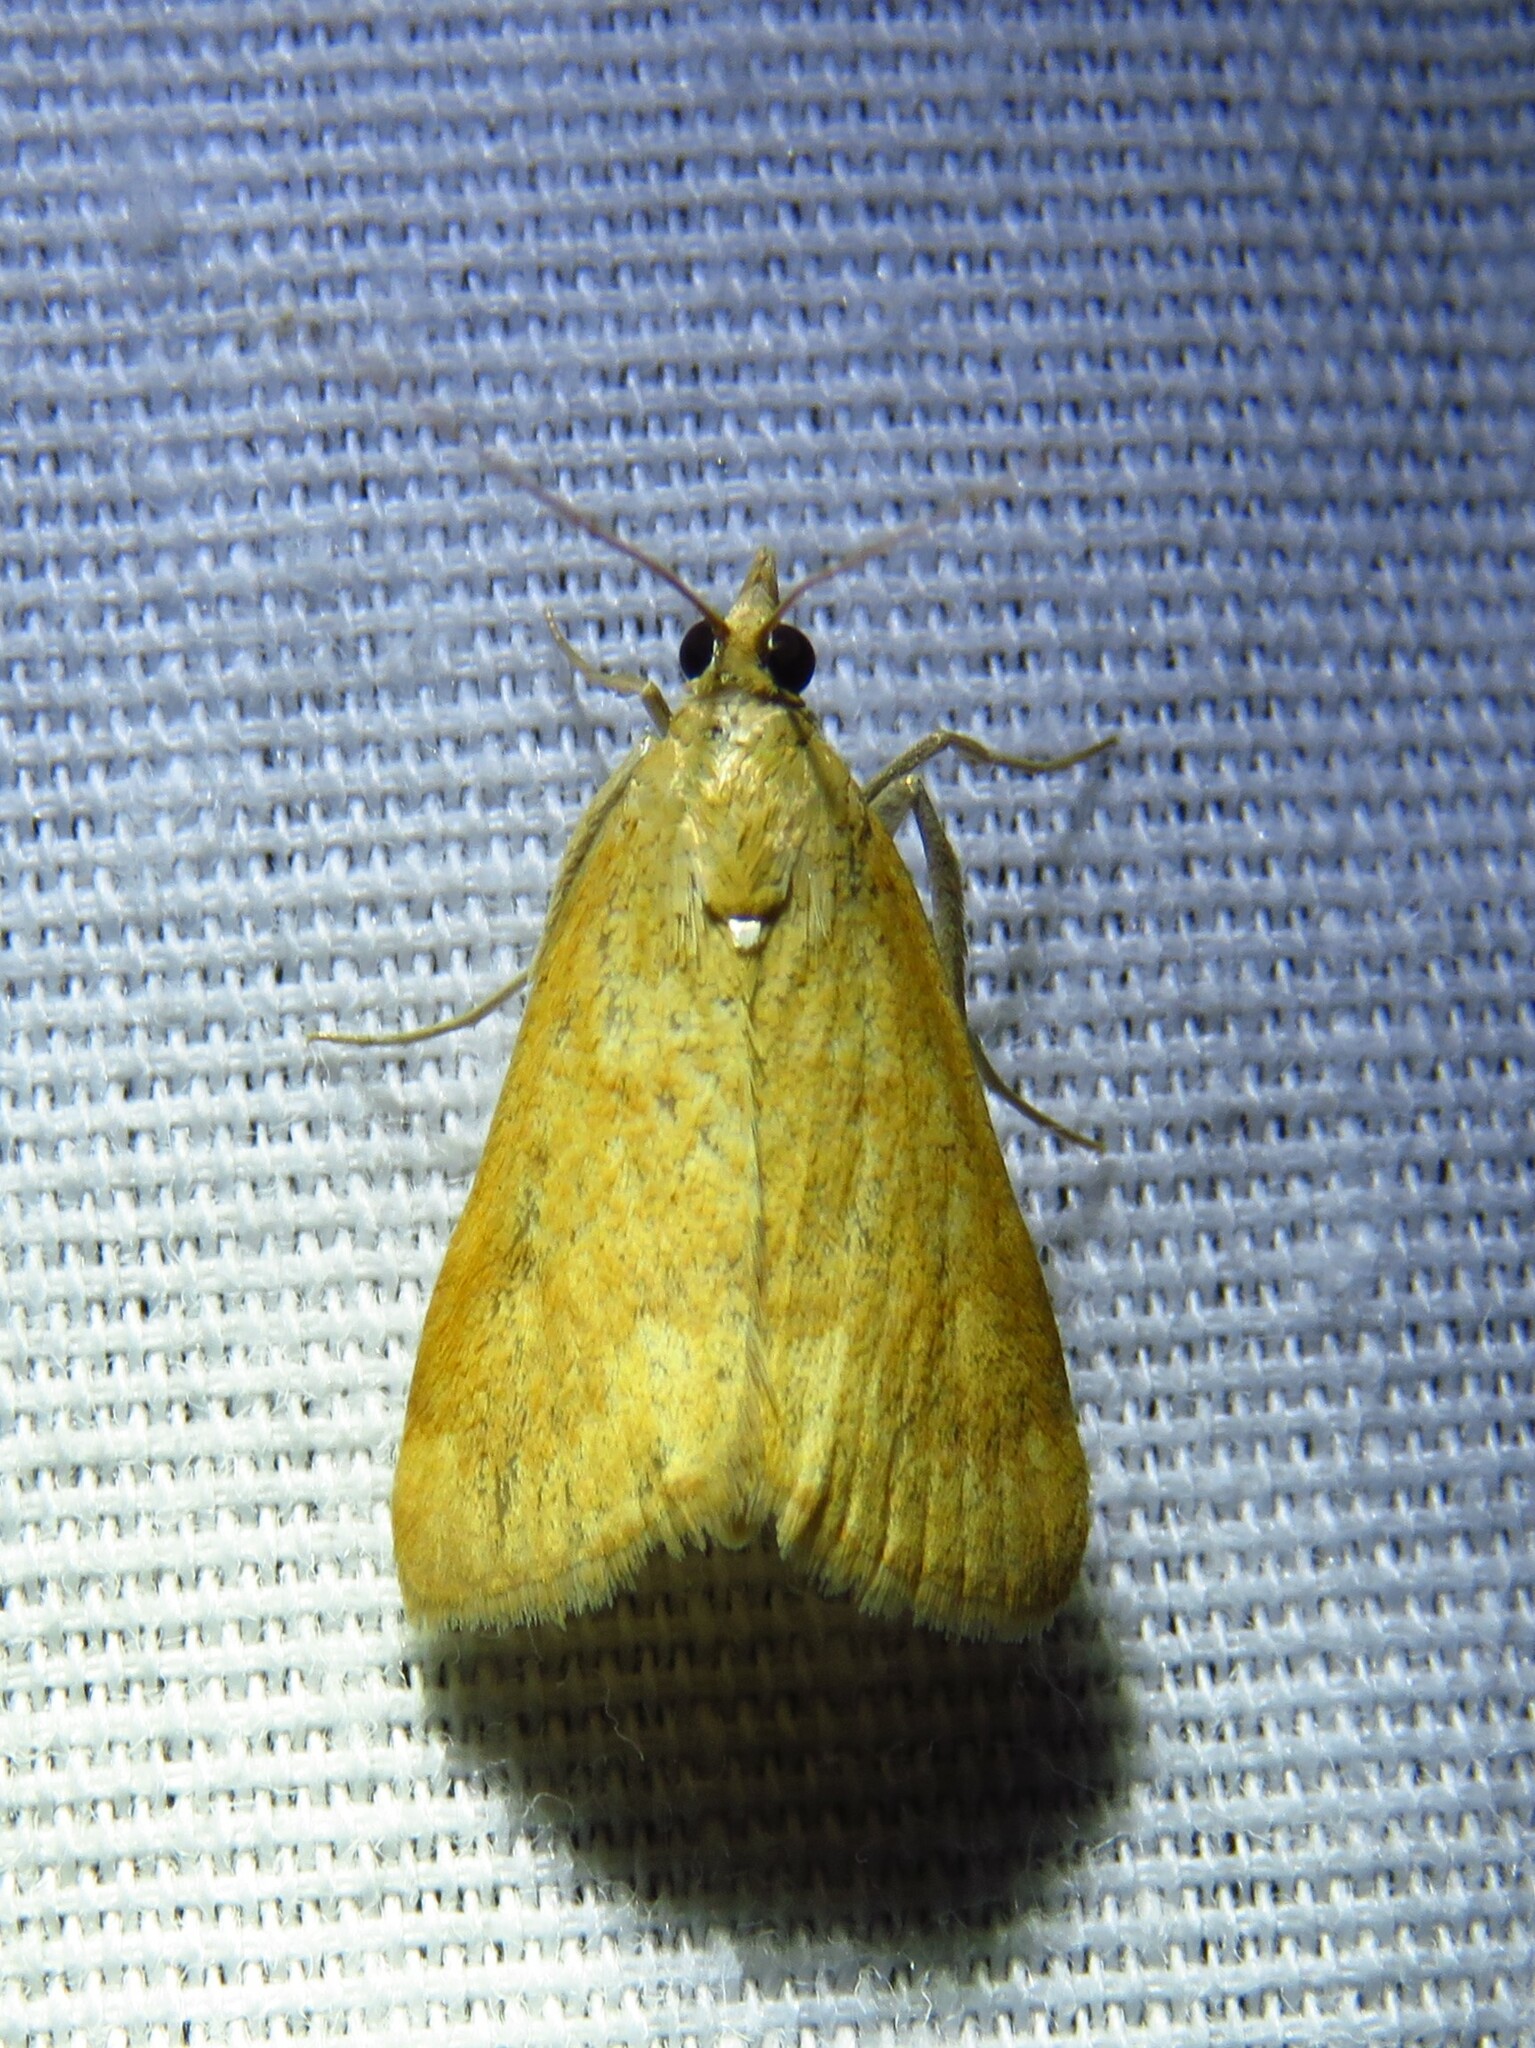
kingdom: Animalia
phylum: Arthropoda
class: Insecta
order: Lepidoptera
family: Crambidae
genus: Achyra
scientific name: Achyra rantalis
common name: Garden webworm
